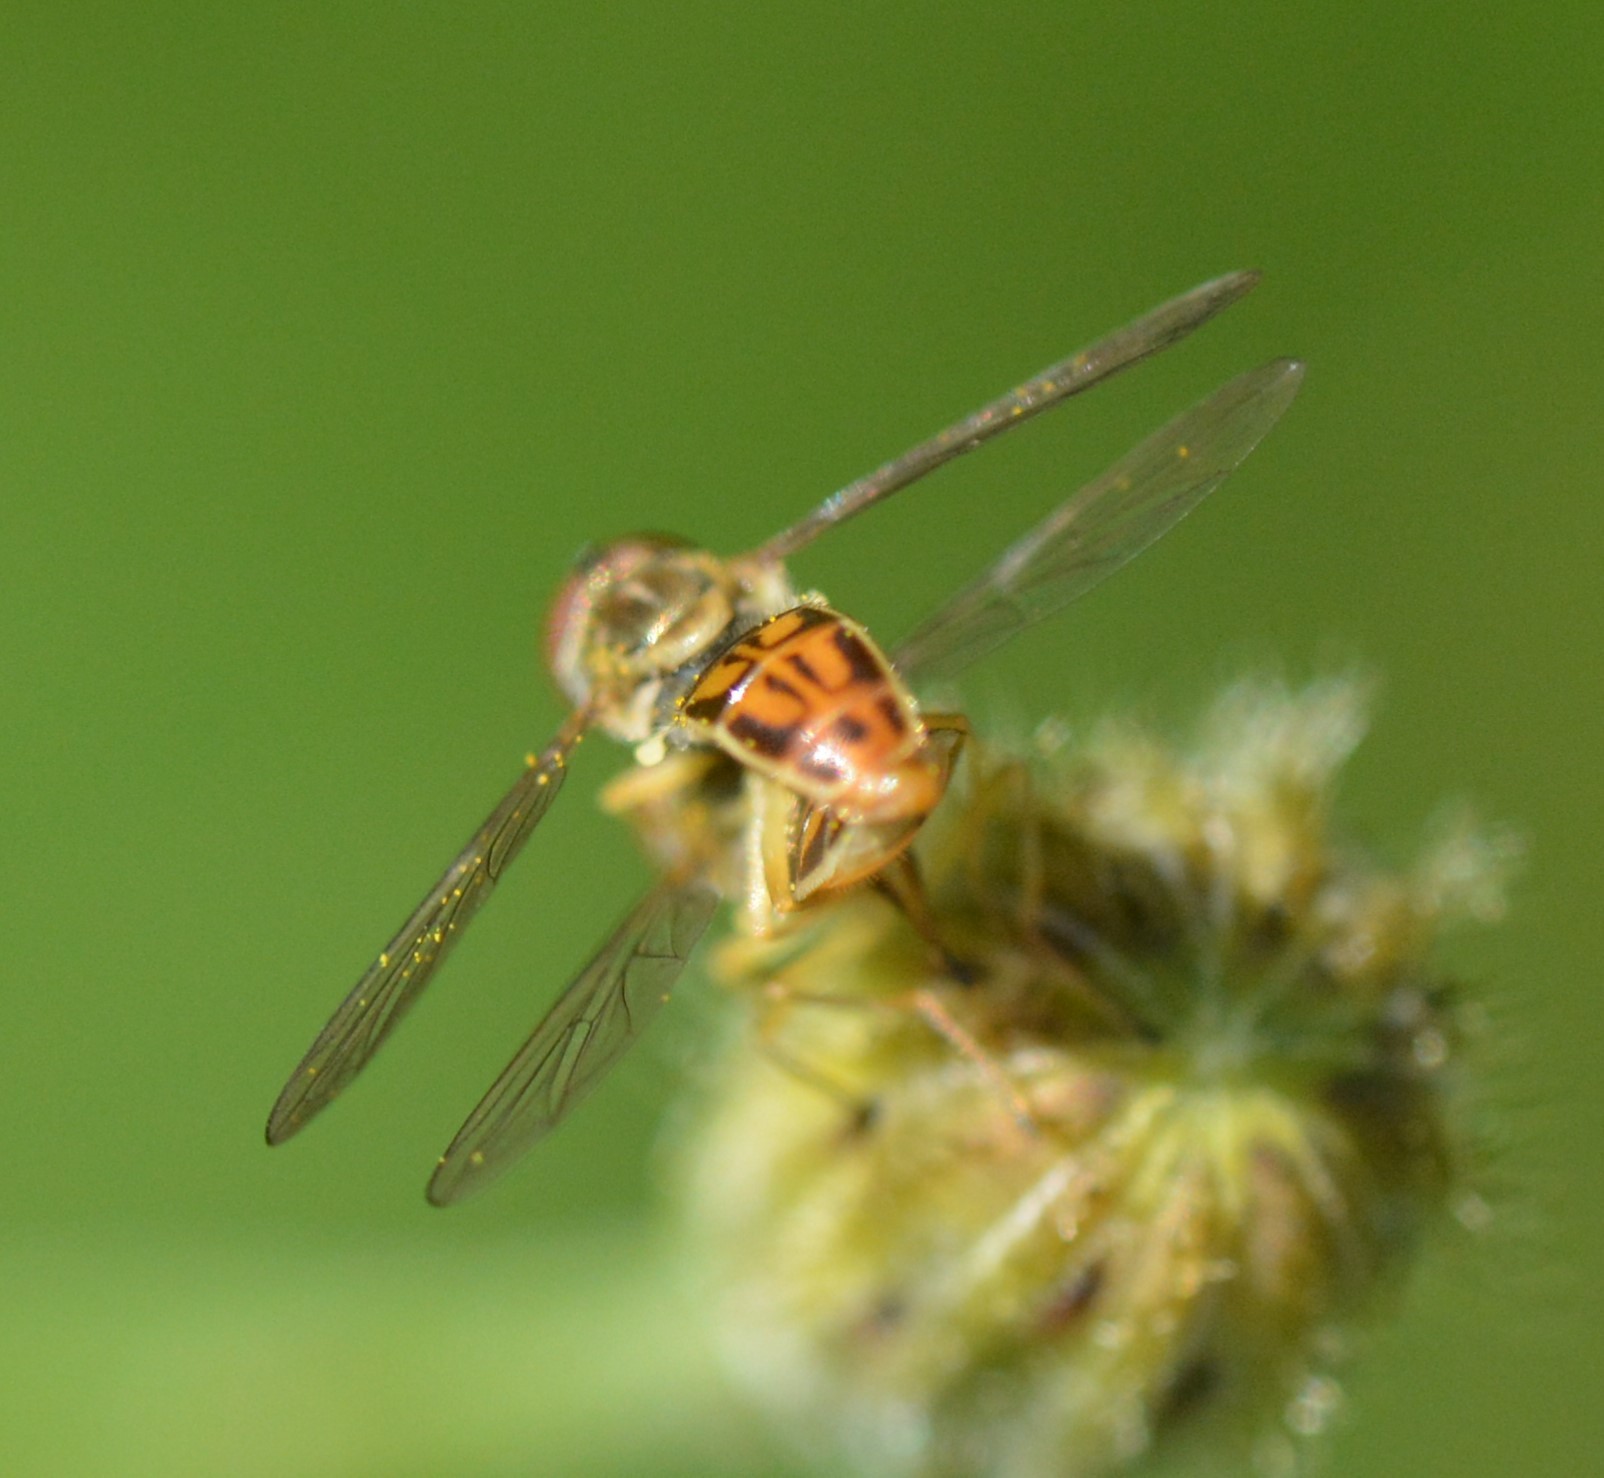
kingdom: Animalia
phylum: Arthropoda
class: Insecta
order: Diptera
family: Syrphidae
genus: Toxomerus
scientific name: Toxomerus marginatus
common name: Syrphid fly
